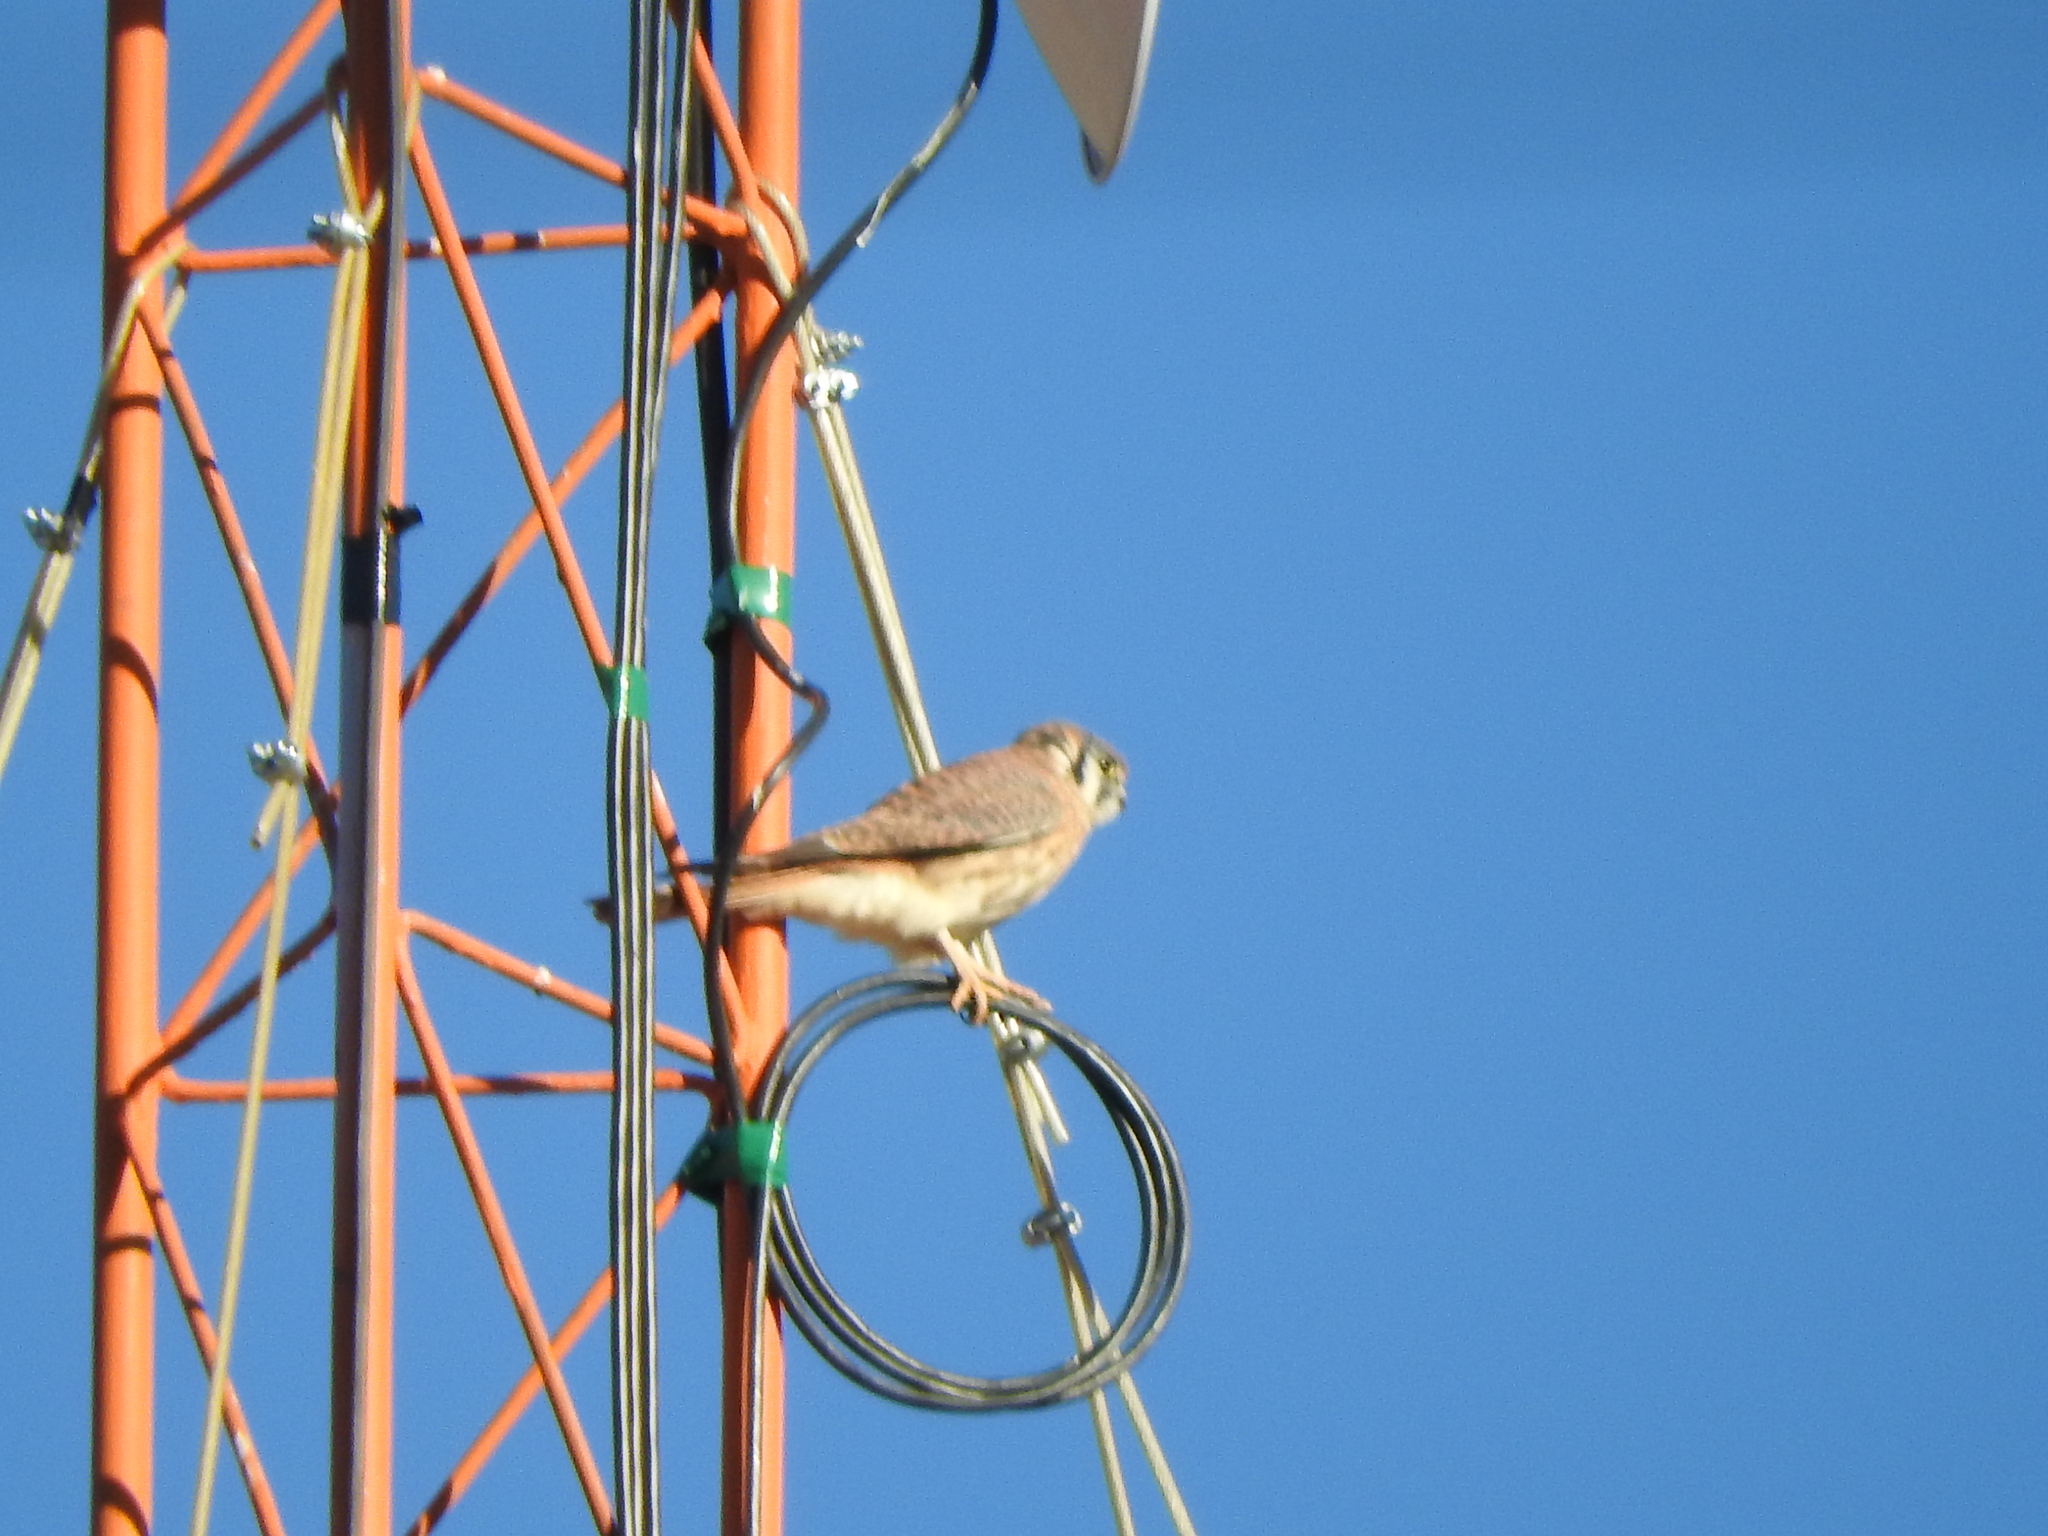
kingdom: Animalia
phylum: Chordata
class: Aves
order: Falconiformes
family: Falconidae
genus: Falco
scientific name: Falco sparverius
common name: American kestrel
